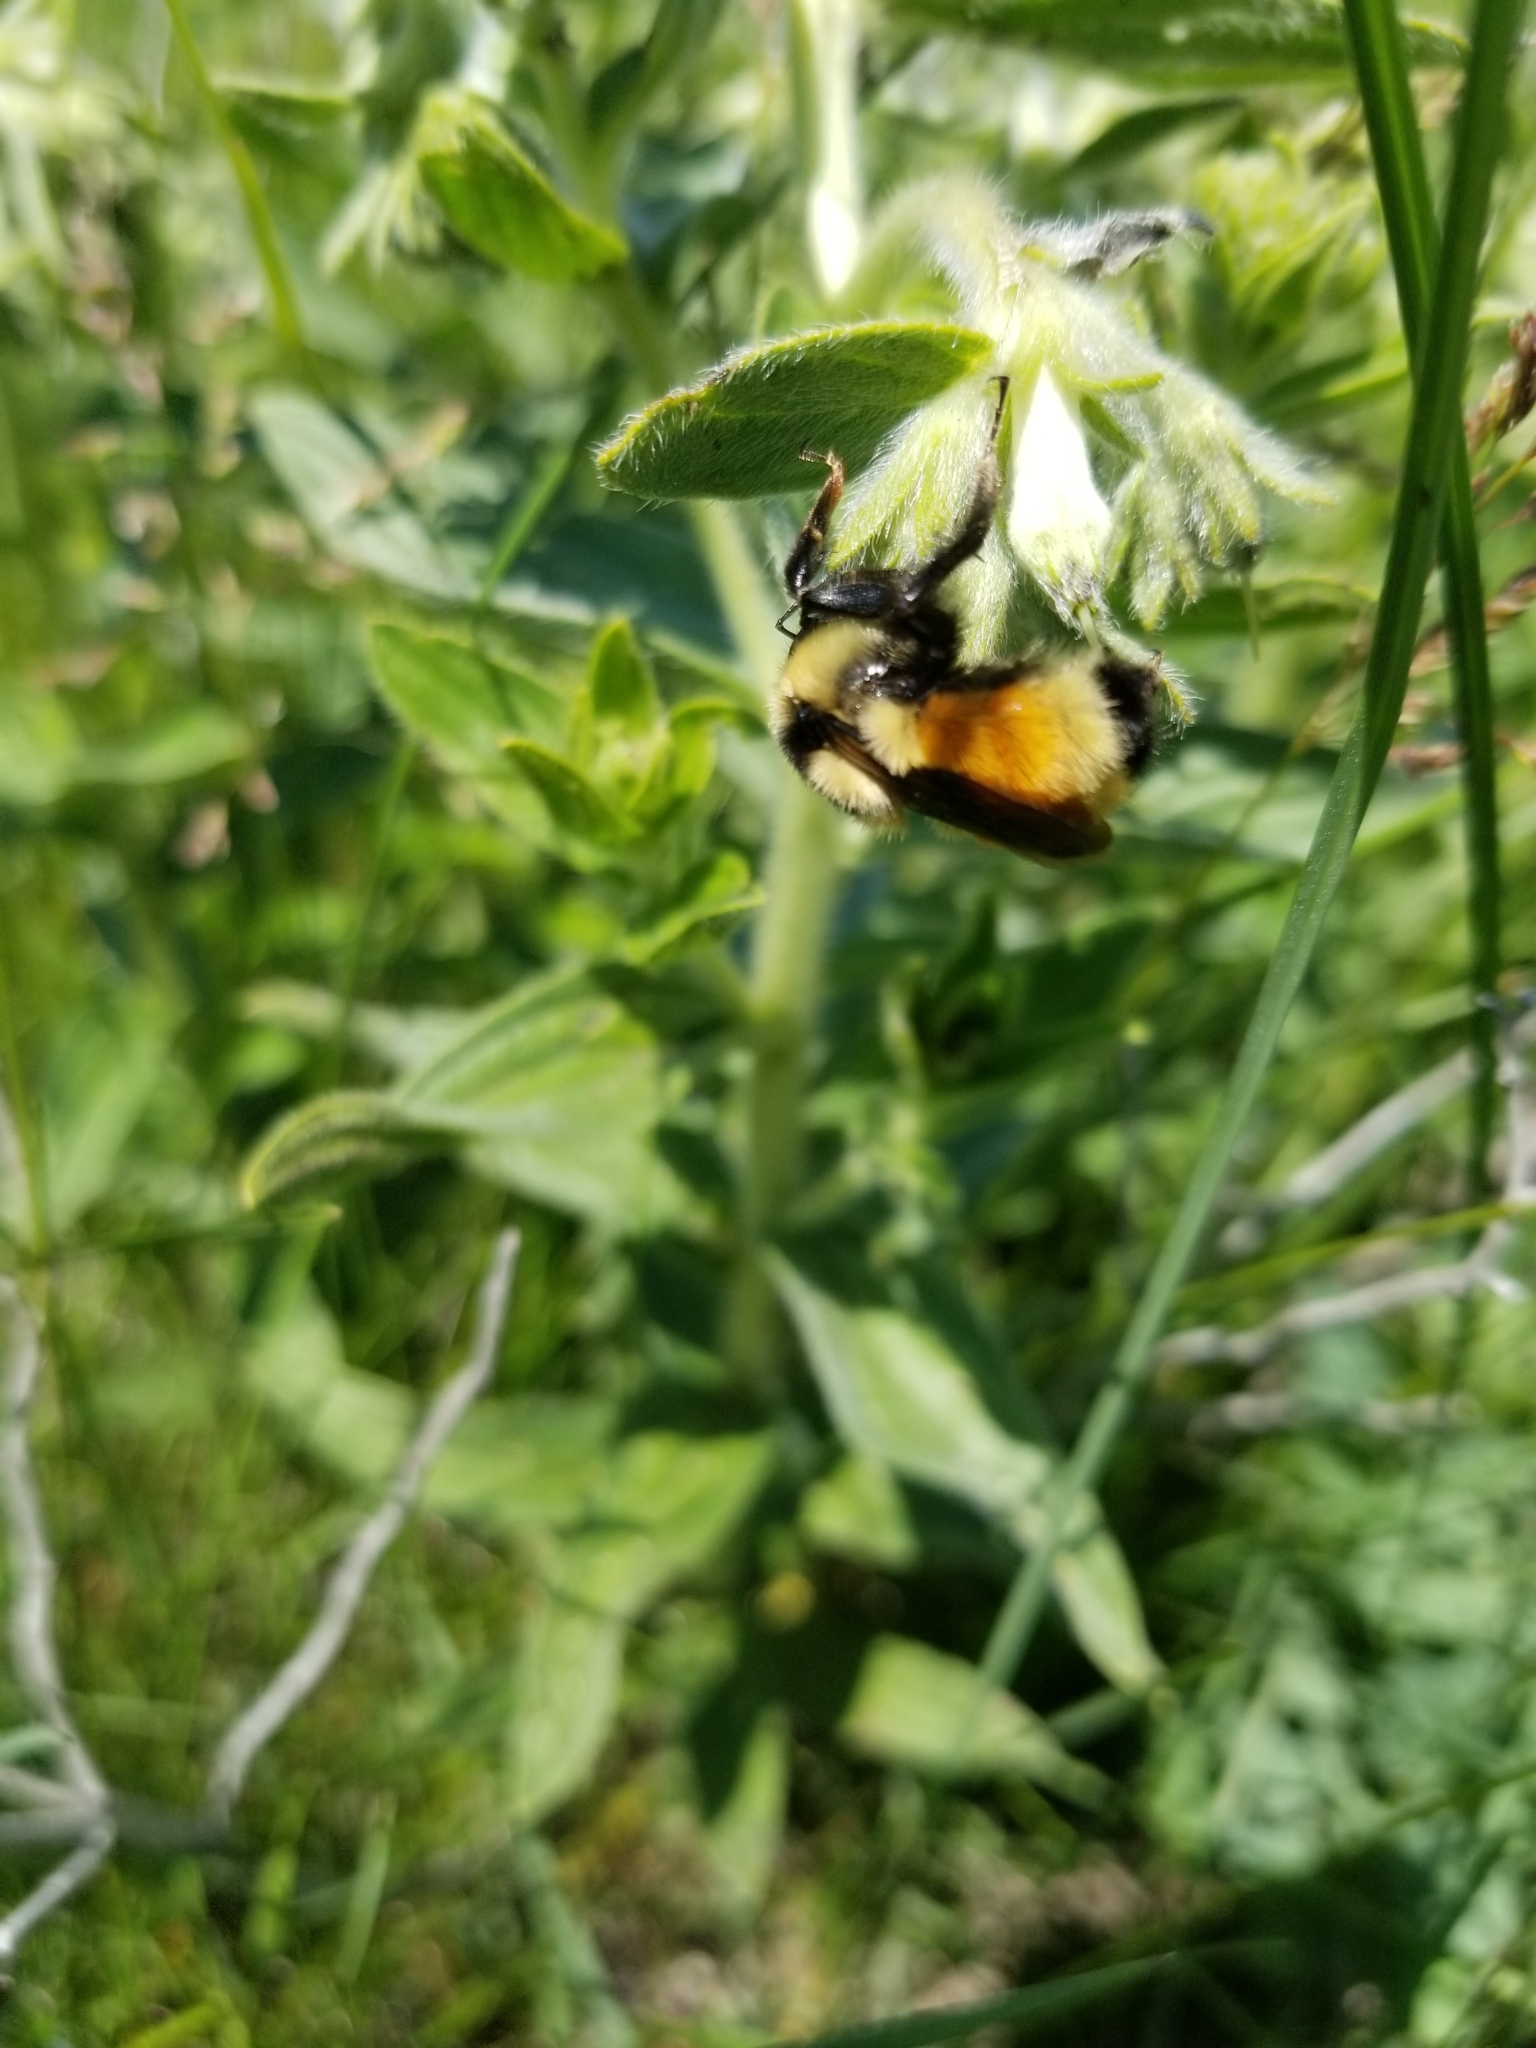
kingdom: Animalia
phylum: Arthropoda
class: Insecta
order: Hymenoptera
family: Apidae
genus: Bombus
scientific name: Bombus huntii
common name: Hunt bumble bee
